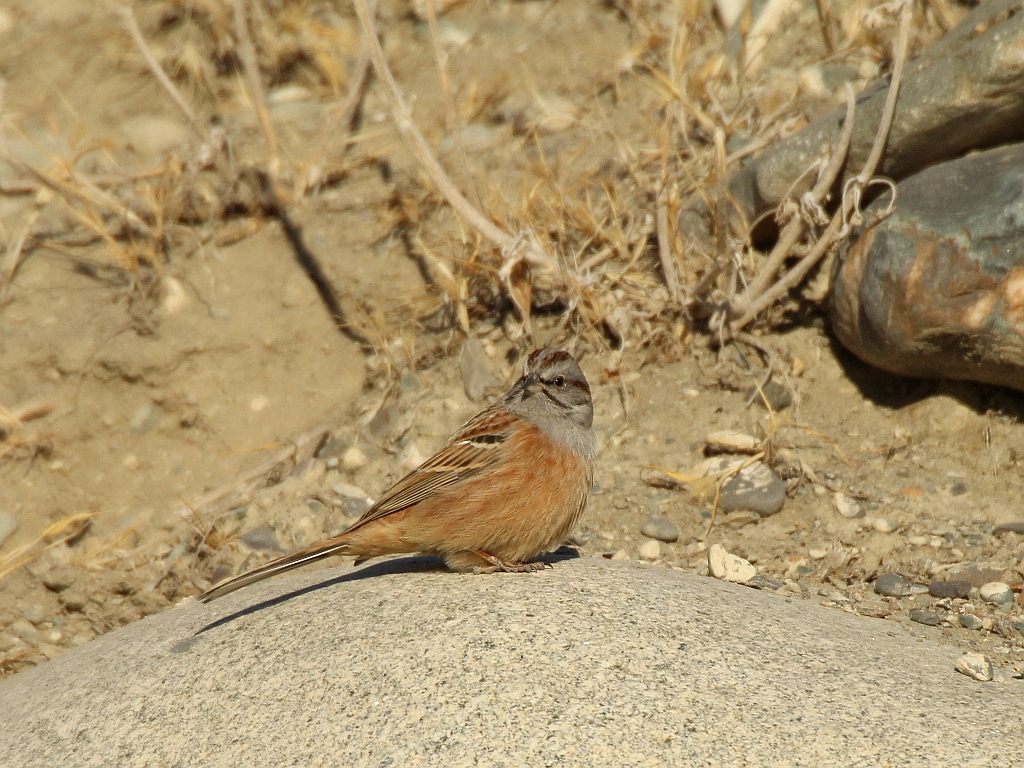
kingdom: Animalia
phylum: Chordata
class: Aves
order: Passeriformes
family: Emberizidae
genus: Emberiza
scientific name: Emberiza godlewskii
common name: Godlewski's bunting
